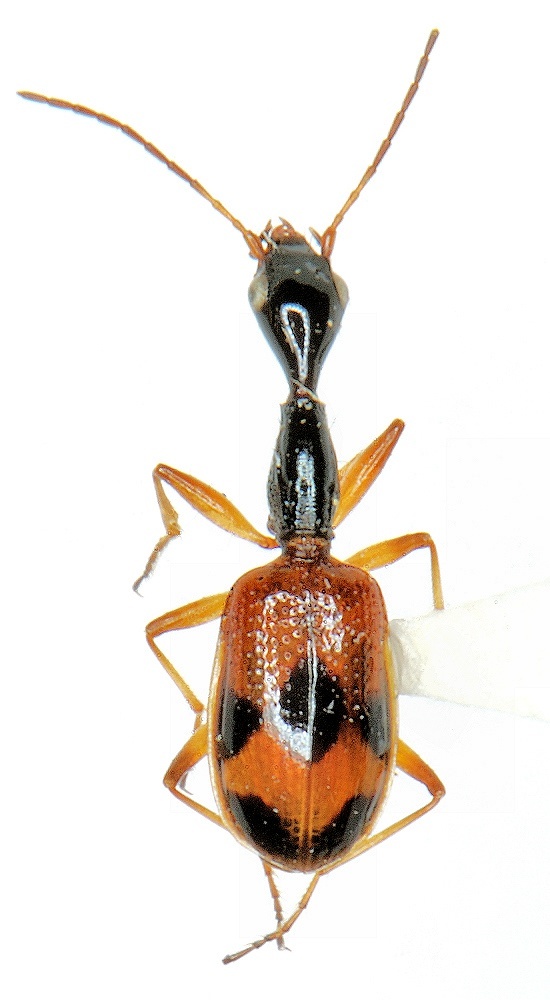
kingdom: Animalia
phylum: Arthropoda
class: Insecta
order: Coleoptera
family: Carabidae
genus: Colliuris
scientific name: Colliuris pensylvanica
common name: Long-necked ground beetle
